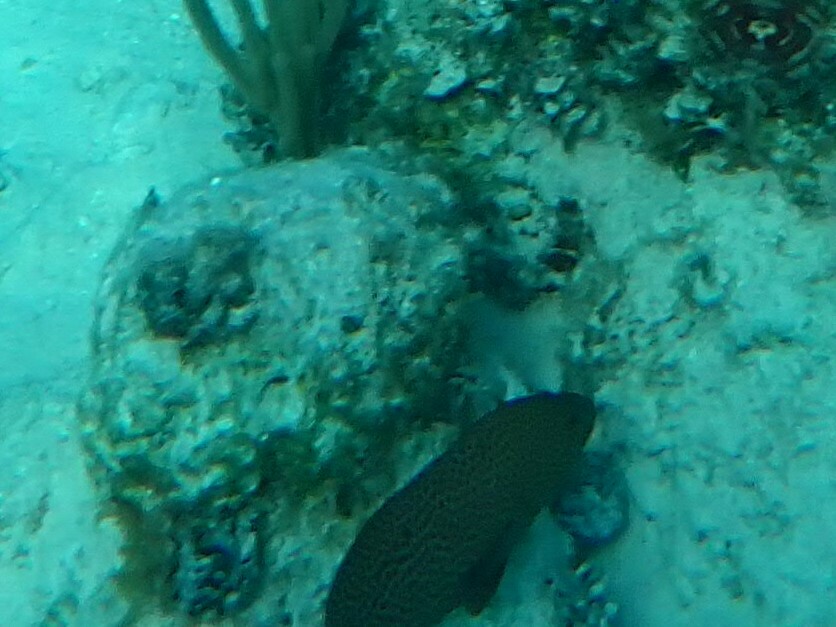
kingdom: Animalia
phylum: Chordata
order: Perciformes
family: Serranidae
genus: Cephalopholis
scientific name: Cephalopholis cruentata
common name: Graysby
